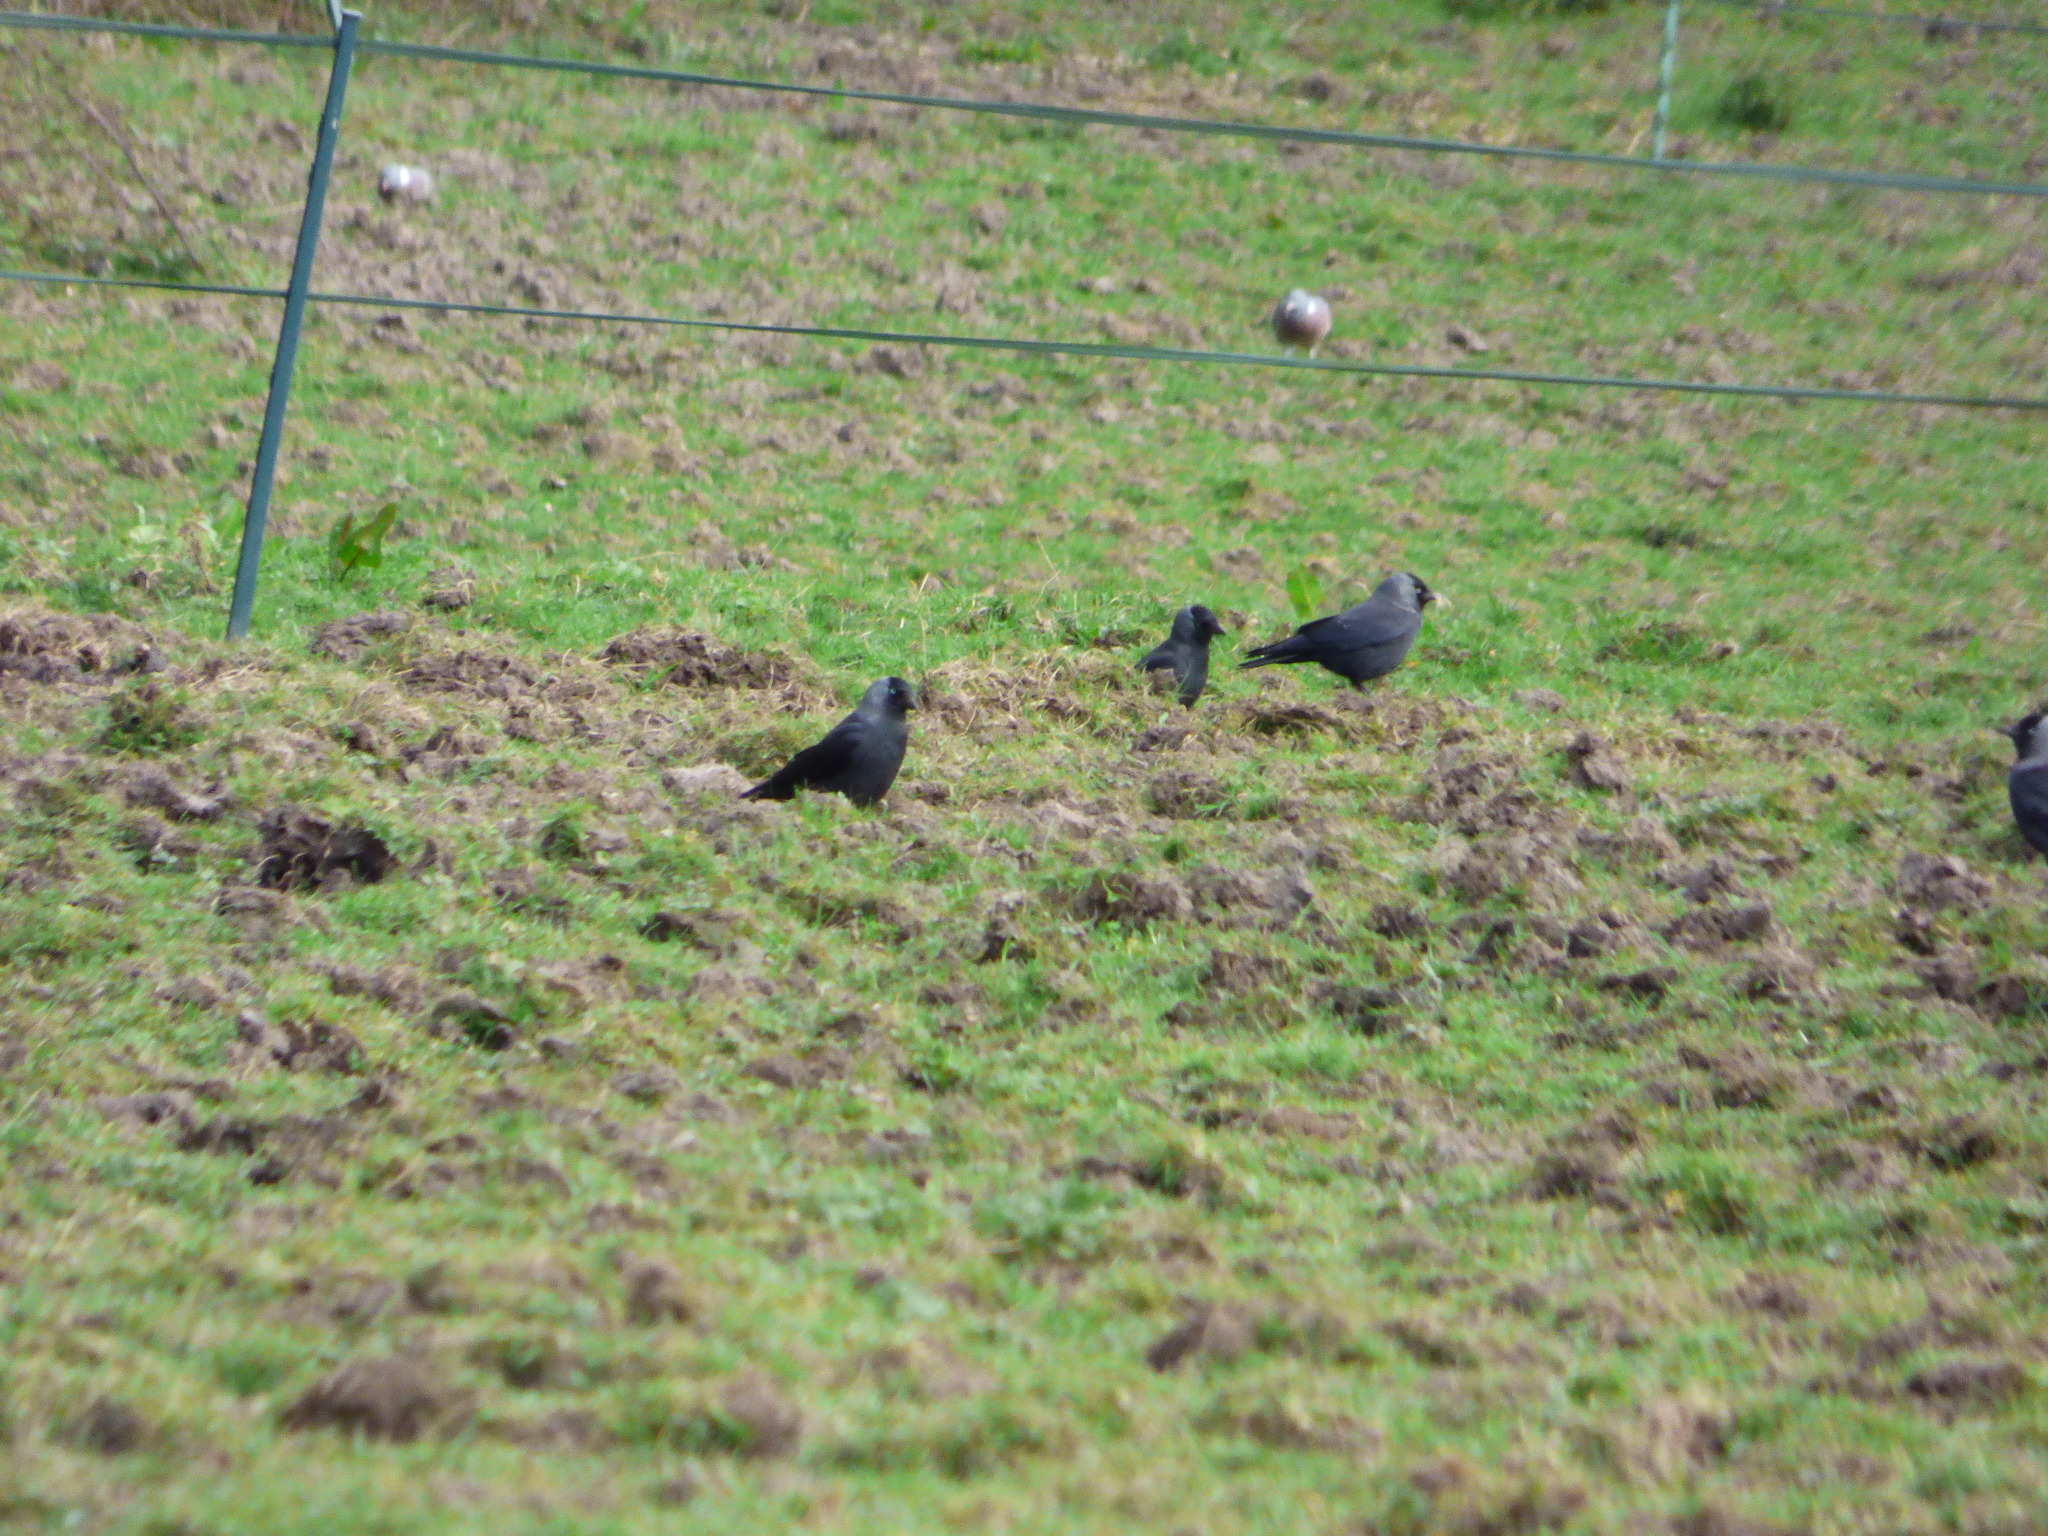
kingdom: Animalia
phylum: Chordata
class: Aves
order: Passeriformes
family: Corvidae
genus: Coloeus
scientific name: Coloeus monedula
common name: Western jackdaw
